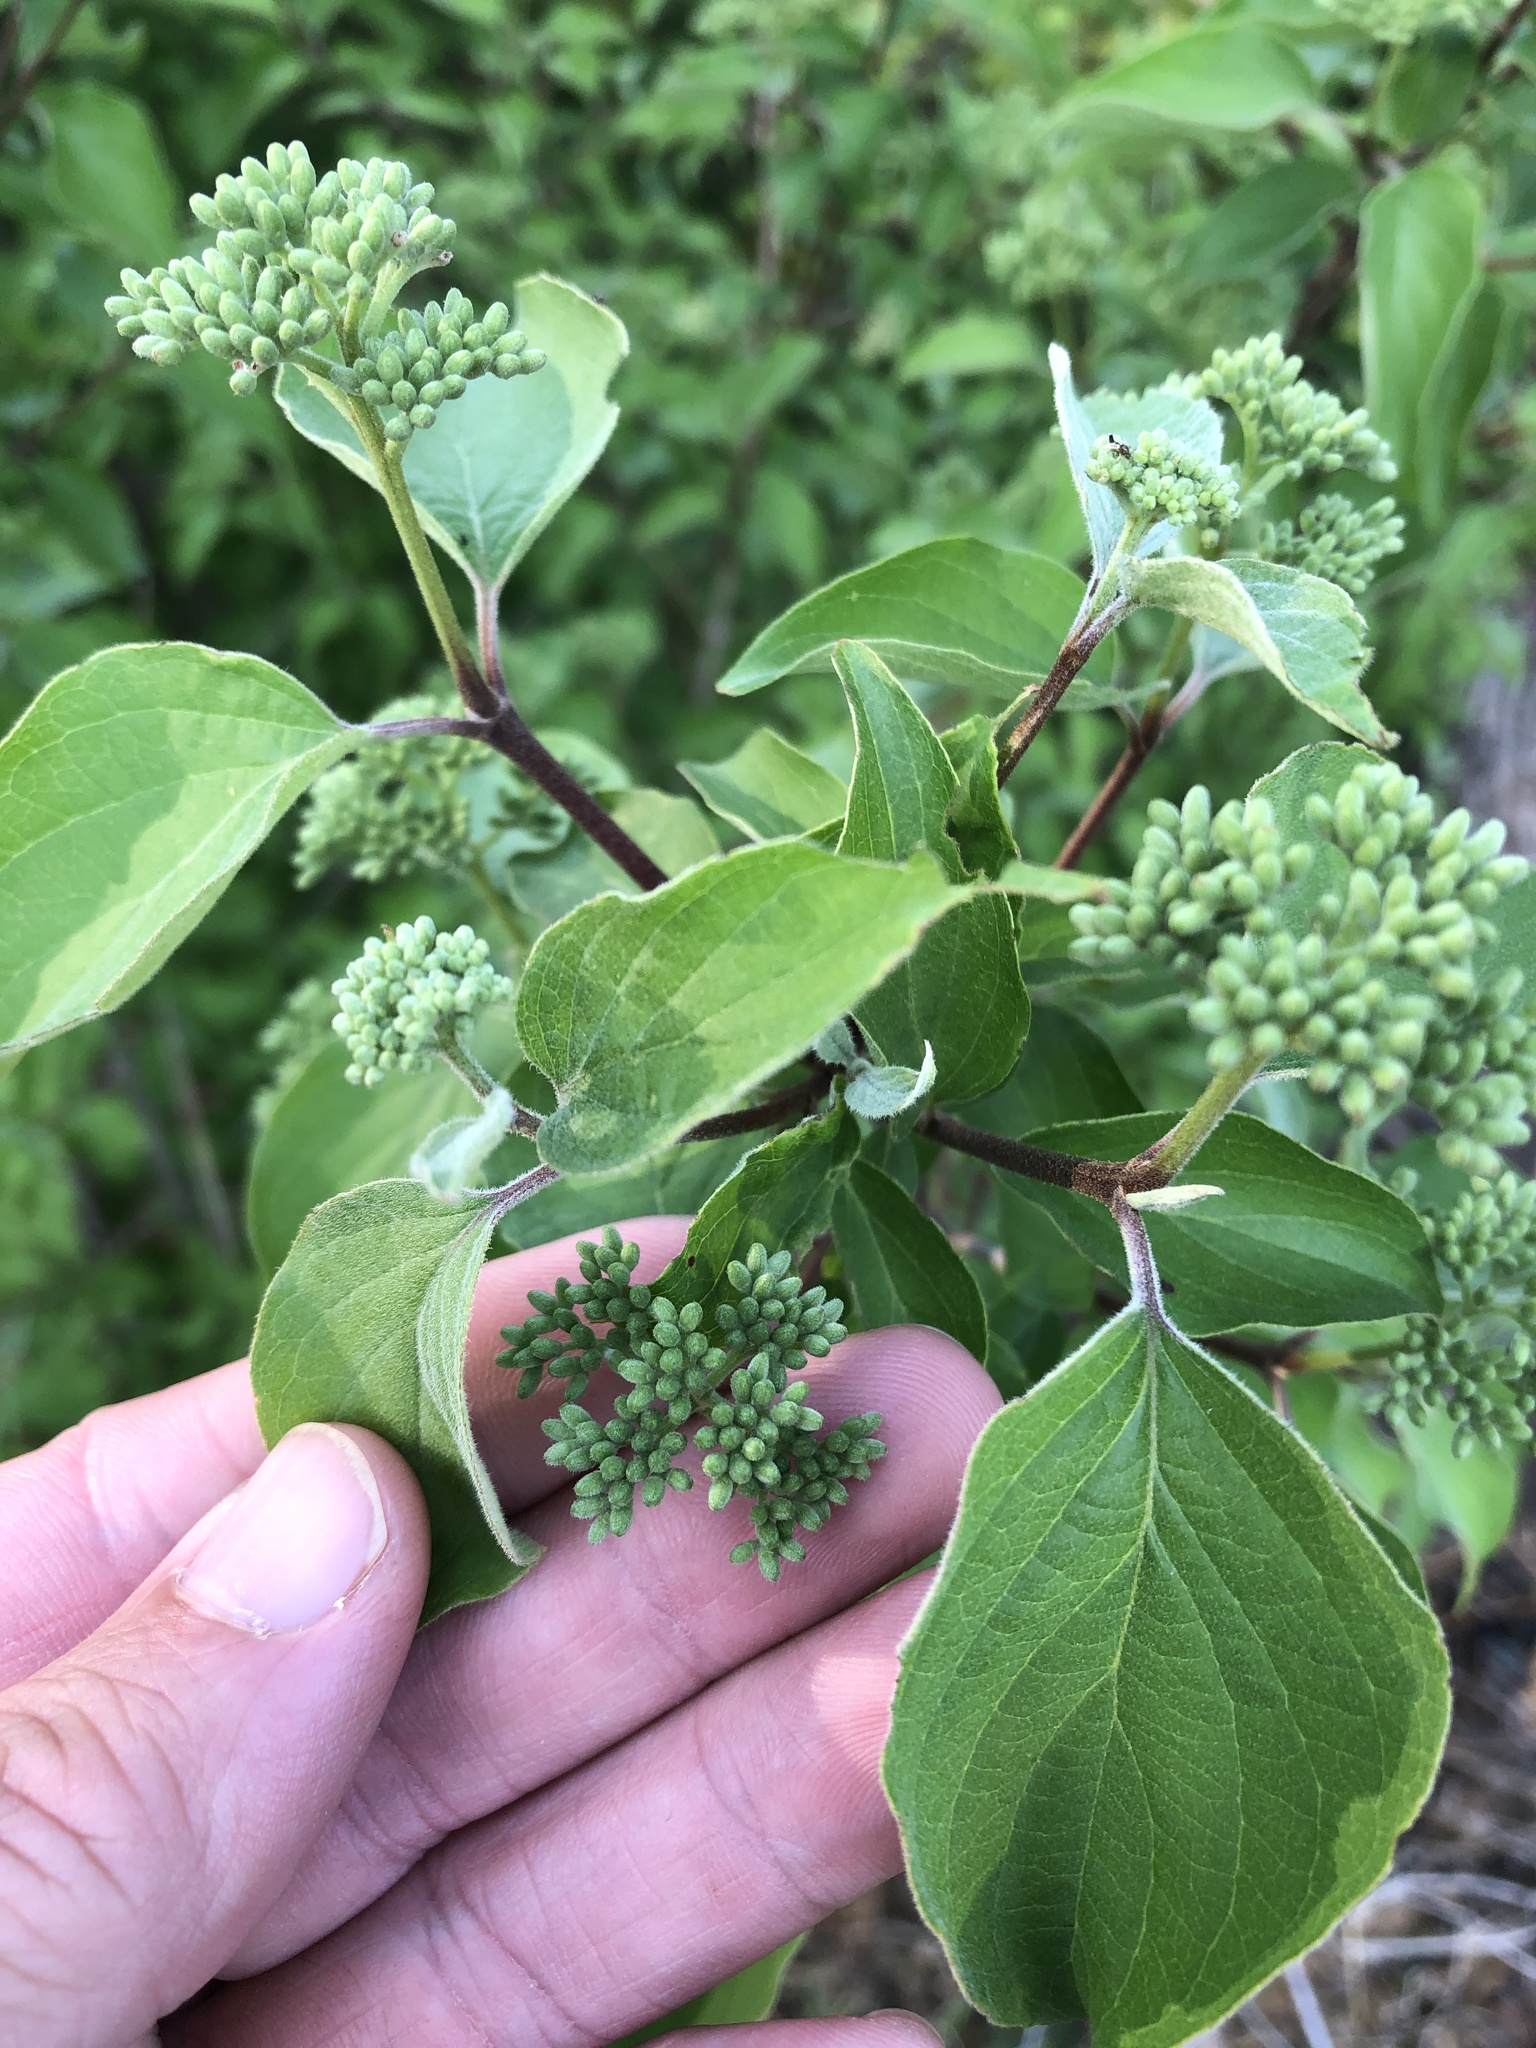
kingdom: Plantae
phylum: Tracheophyta
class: Magnoliopsida
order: Cornales
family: Cornaceae
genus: Cornus
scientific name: Cornus drummondii
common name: Rough-leaf dogwood
